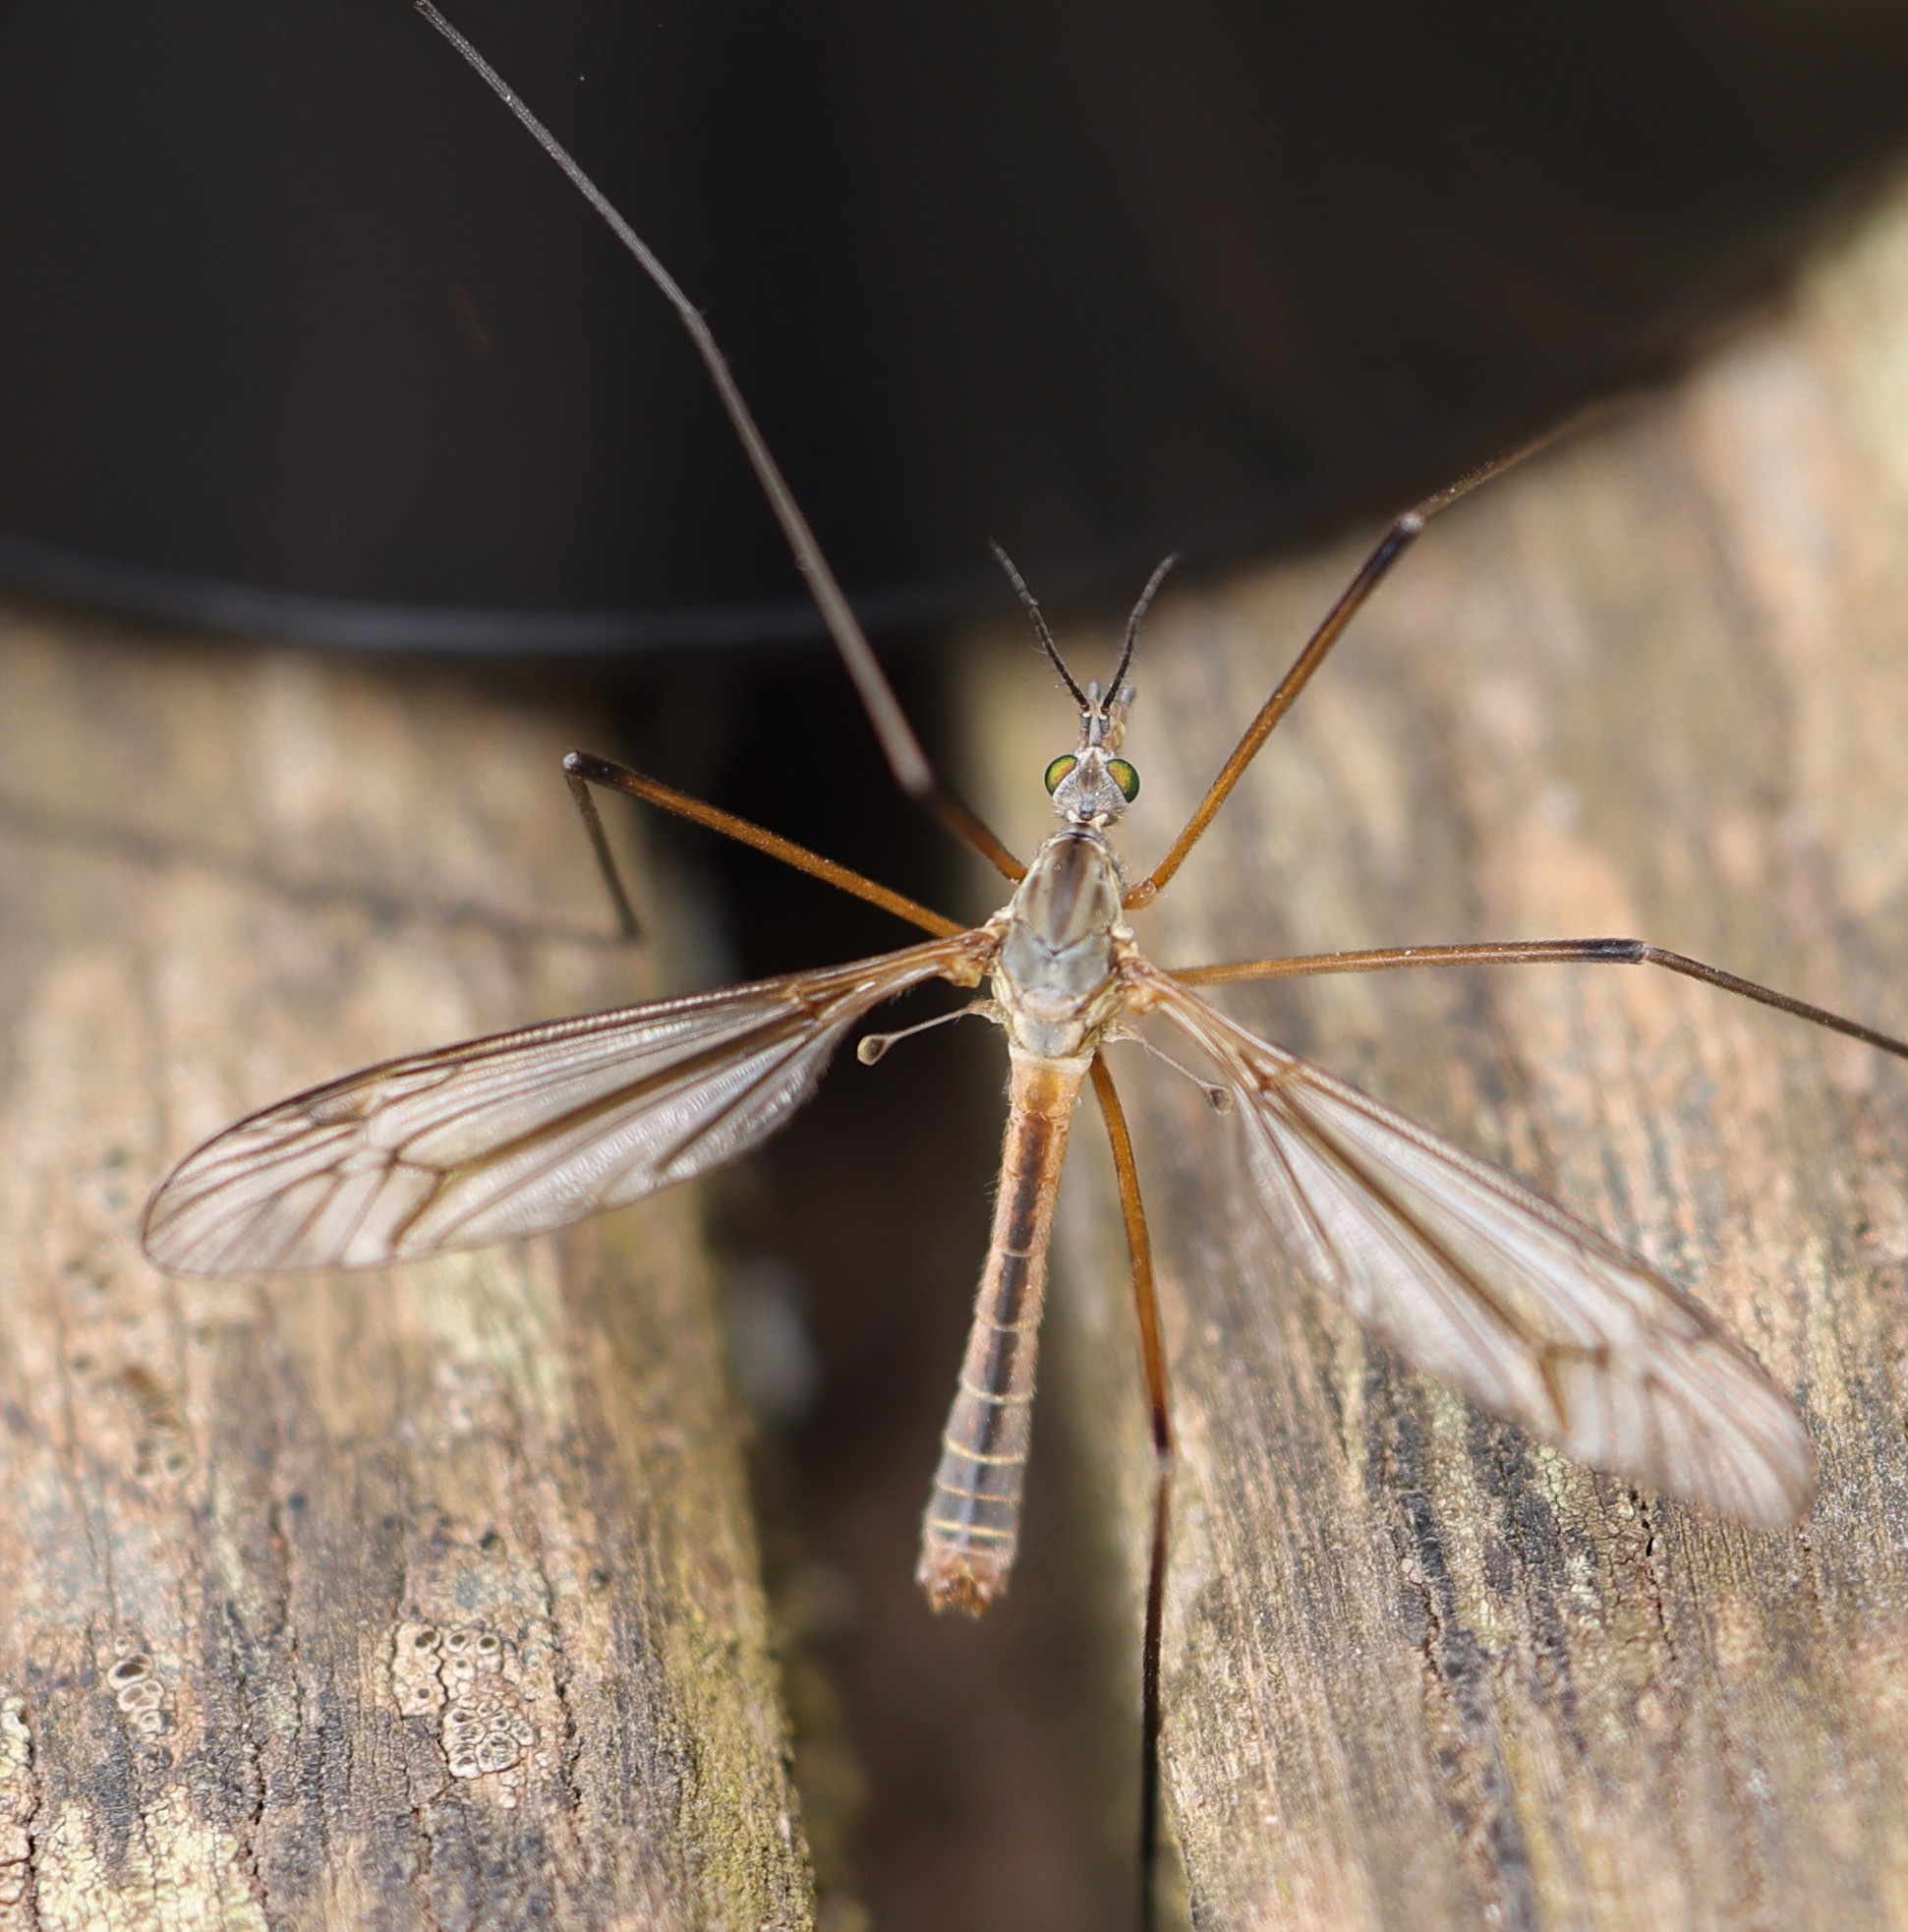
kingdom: Animalia
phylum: Arthropoda
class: Insecta
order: Diptera
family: Tipulidae
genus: Tipula
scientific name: Tipula vernalis
